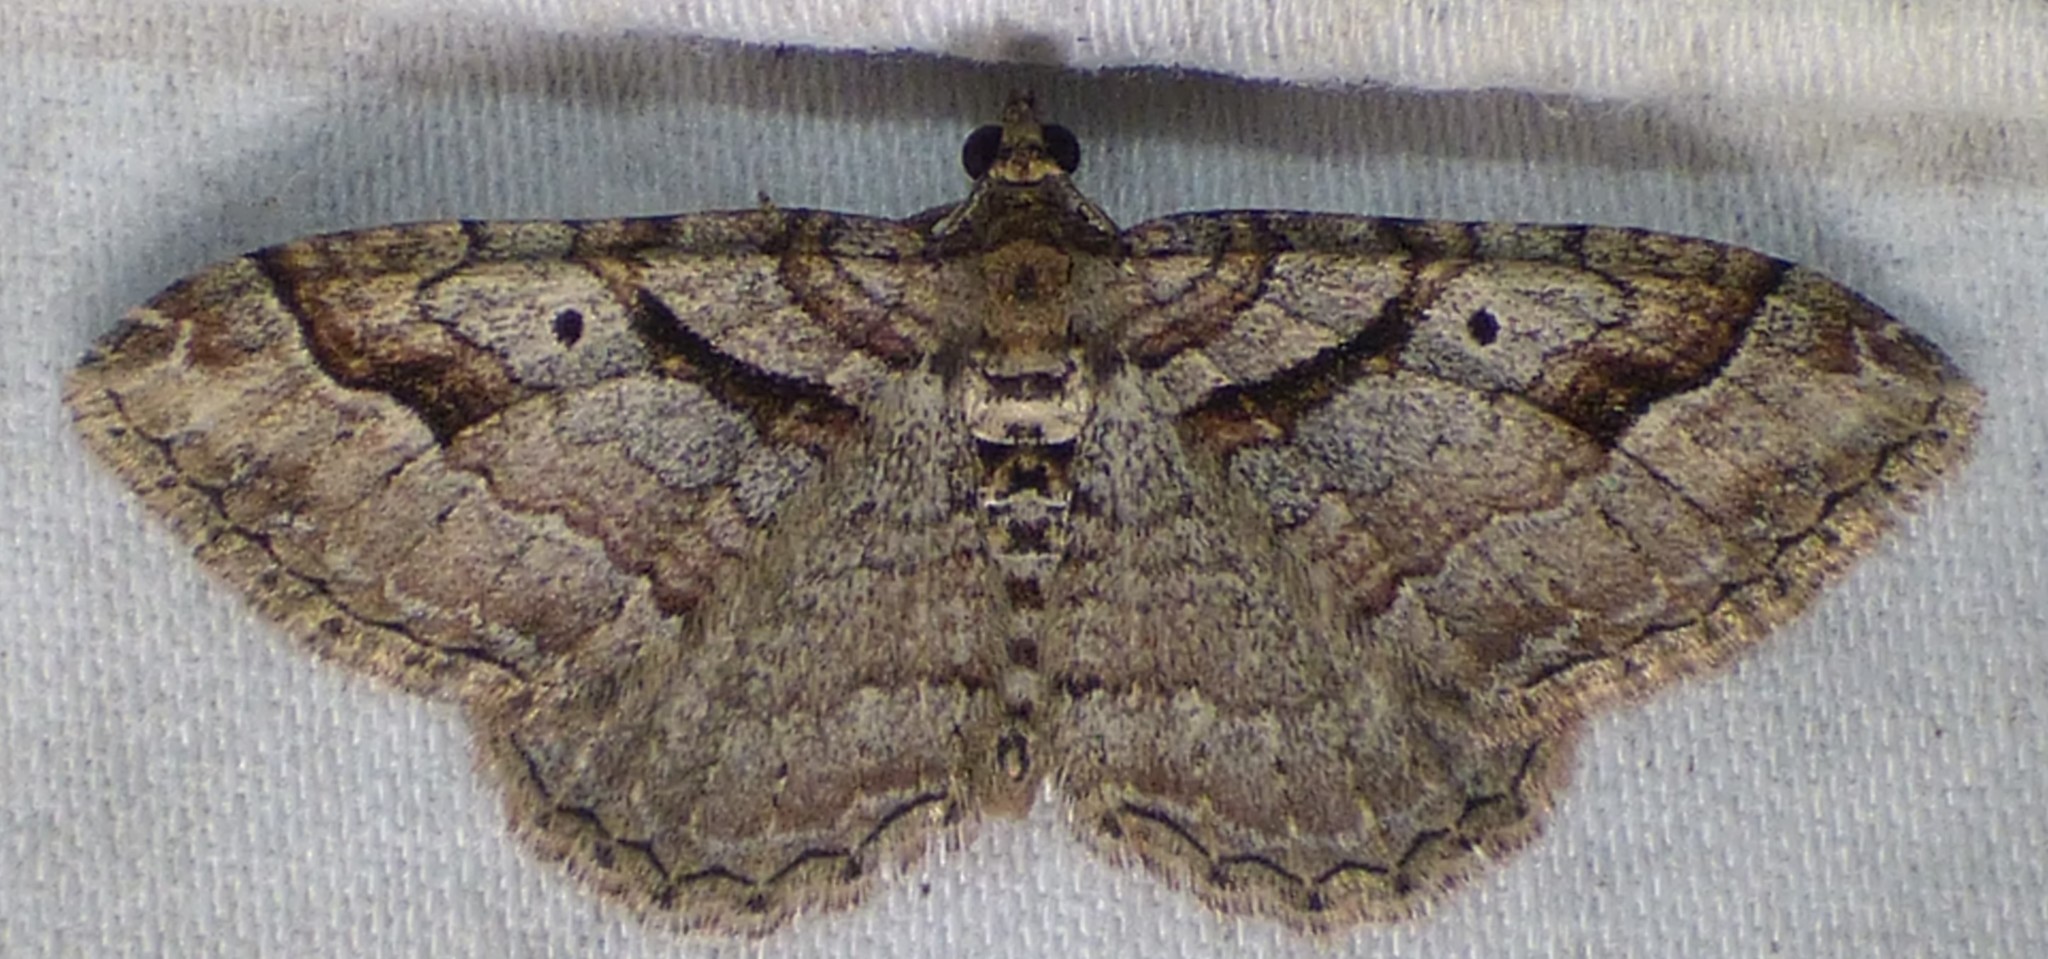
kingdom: Animalia
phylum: Arthropoda
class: Insecta
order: Lepidoptera
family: Geometridae
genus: Costaconvexa
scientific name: Costaconvexa centrostrigaria
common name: Bent-line carpet
